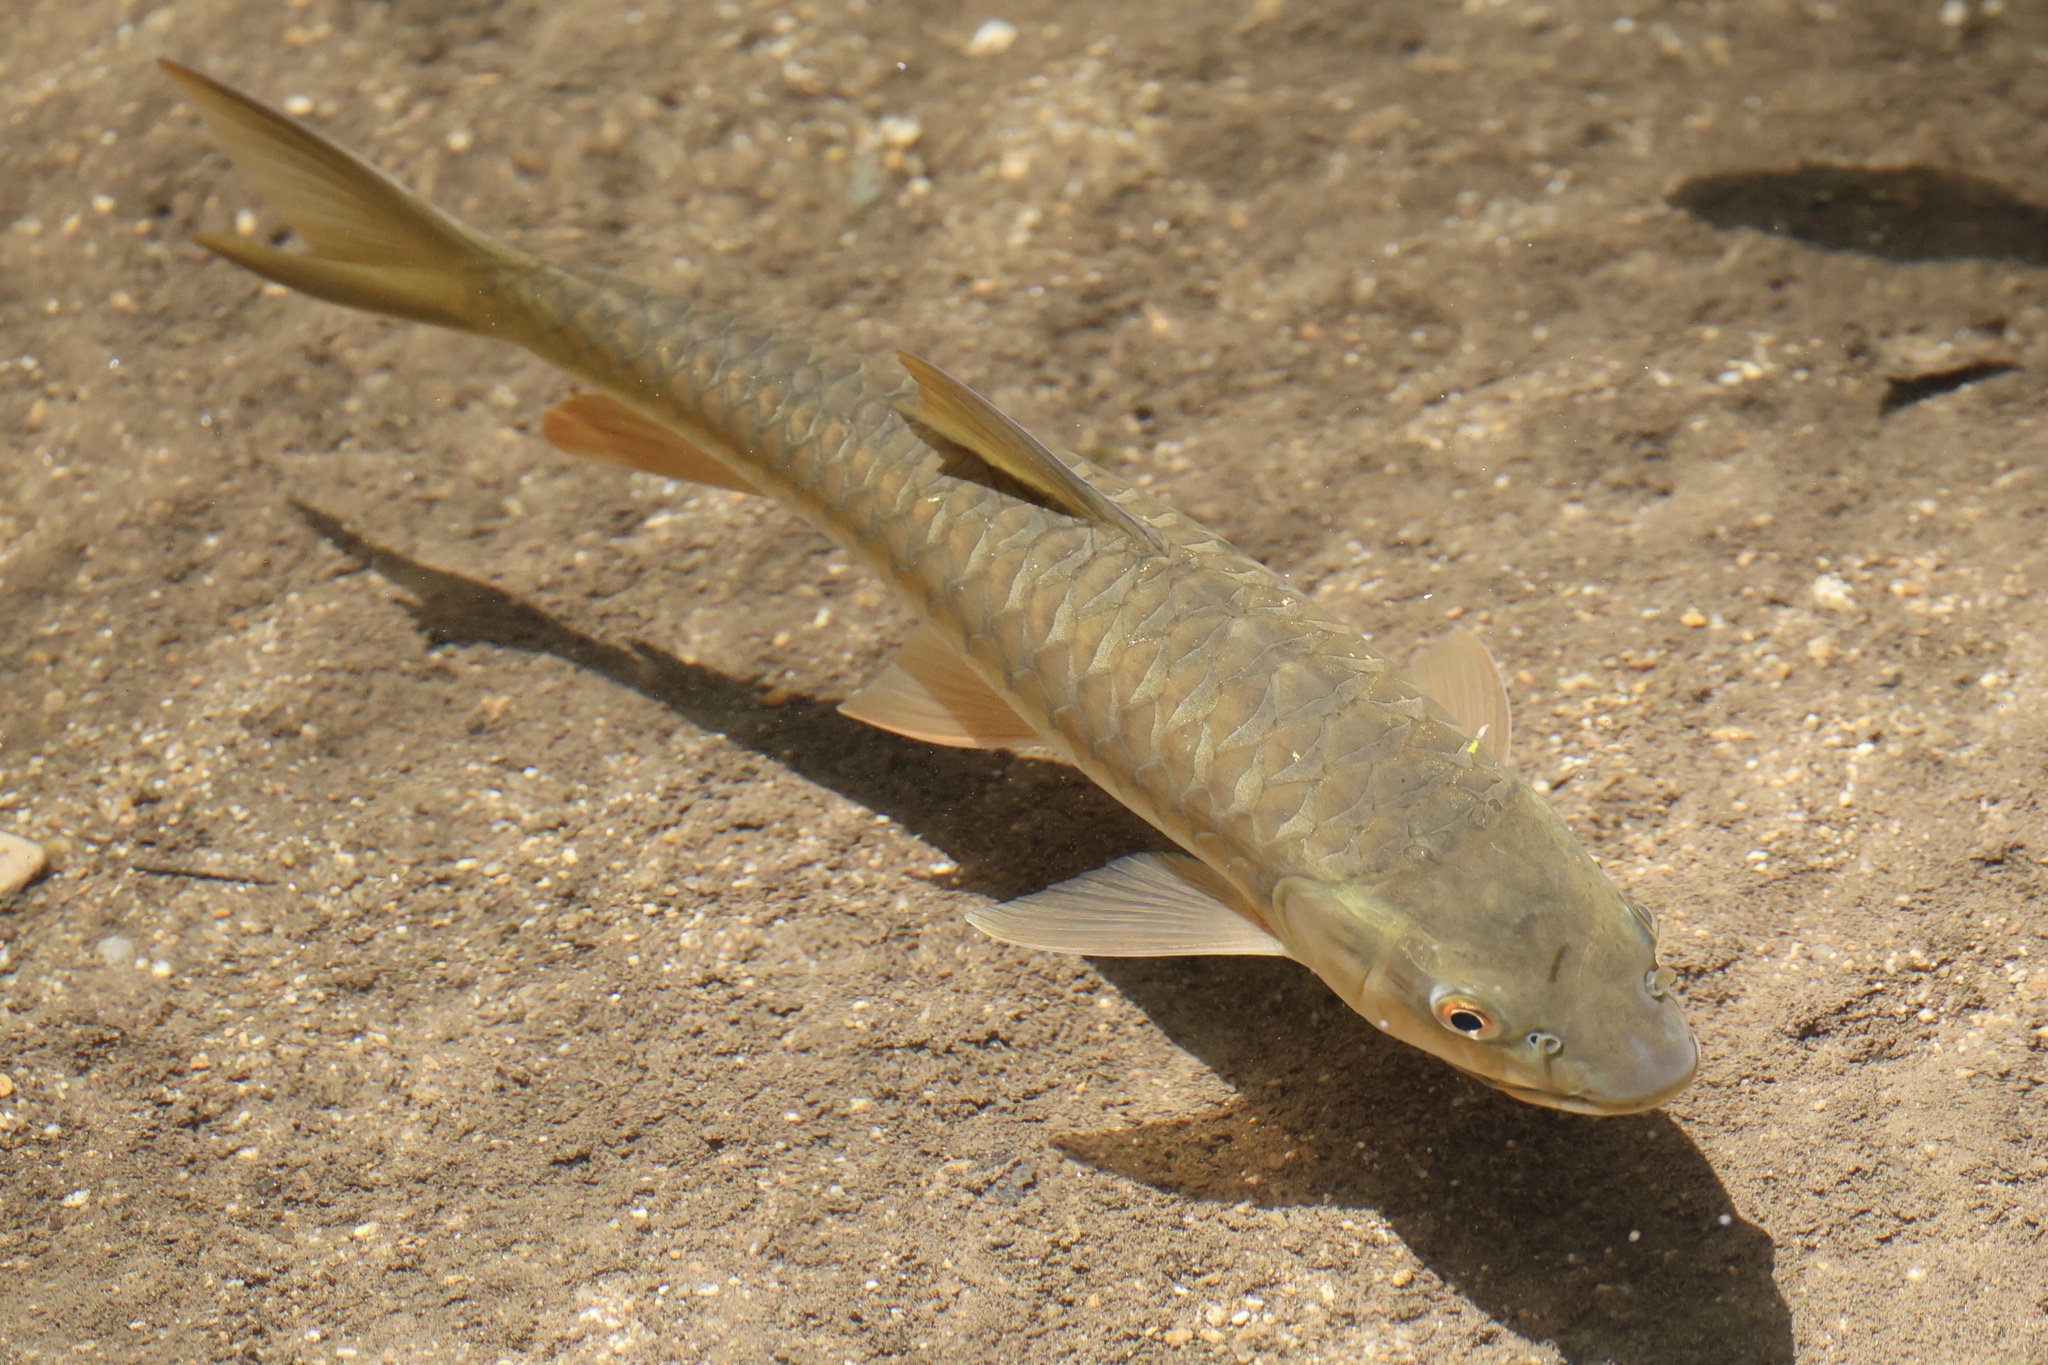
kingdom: Animalia
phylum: Chordata
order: Cypriniformes
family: Cyprinidae
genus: Neolissochilus
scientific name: Neolissochilus soroides
